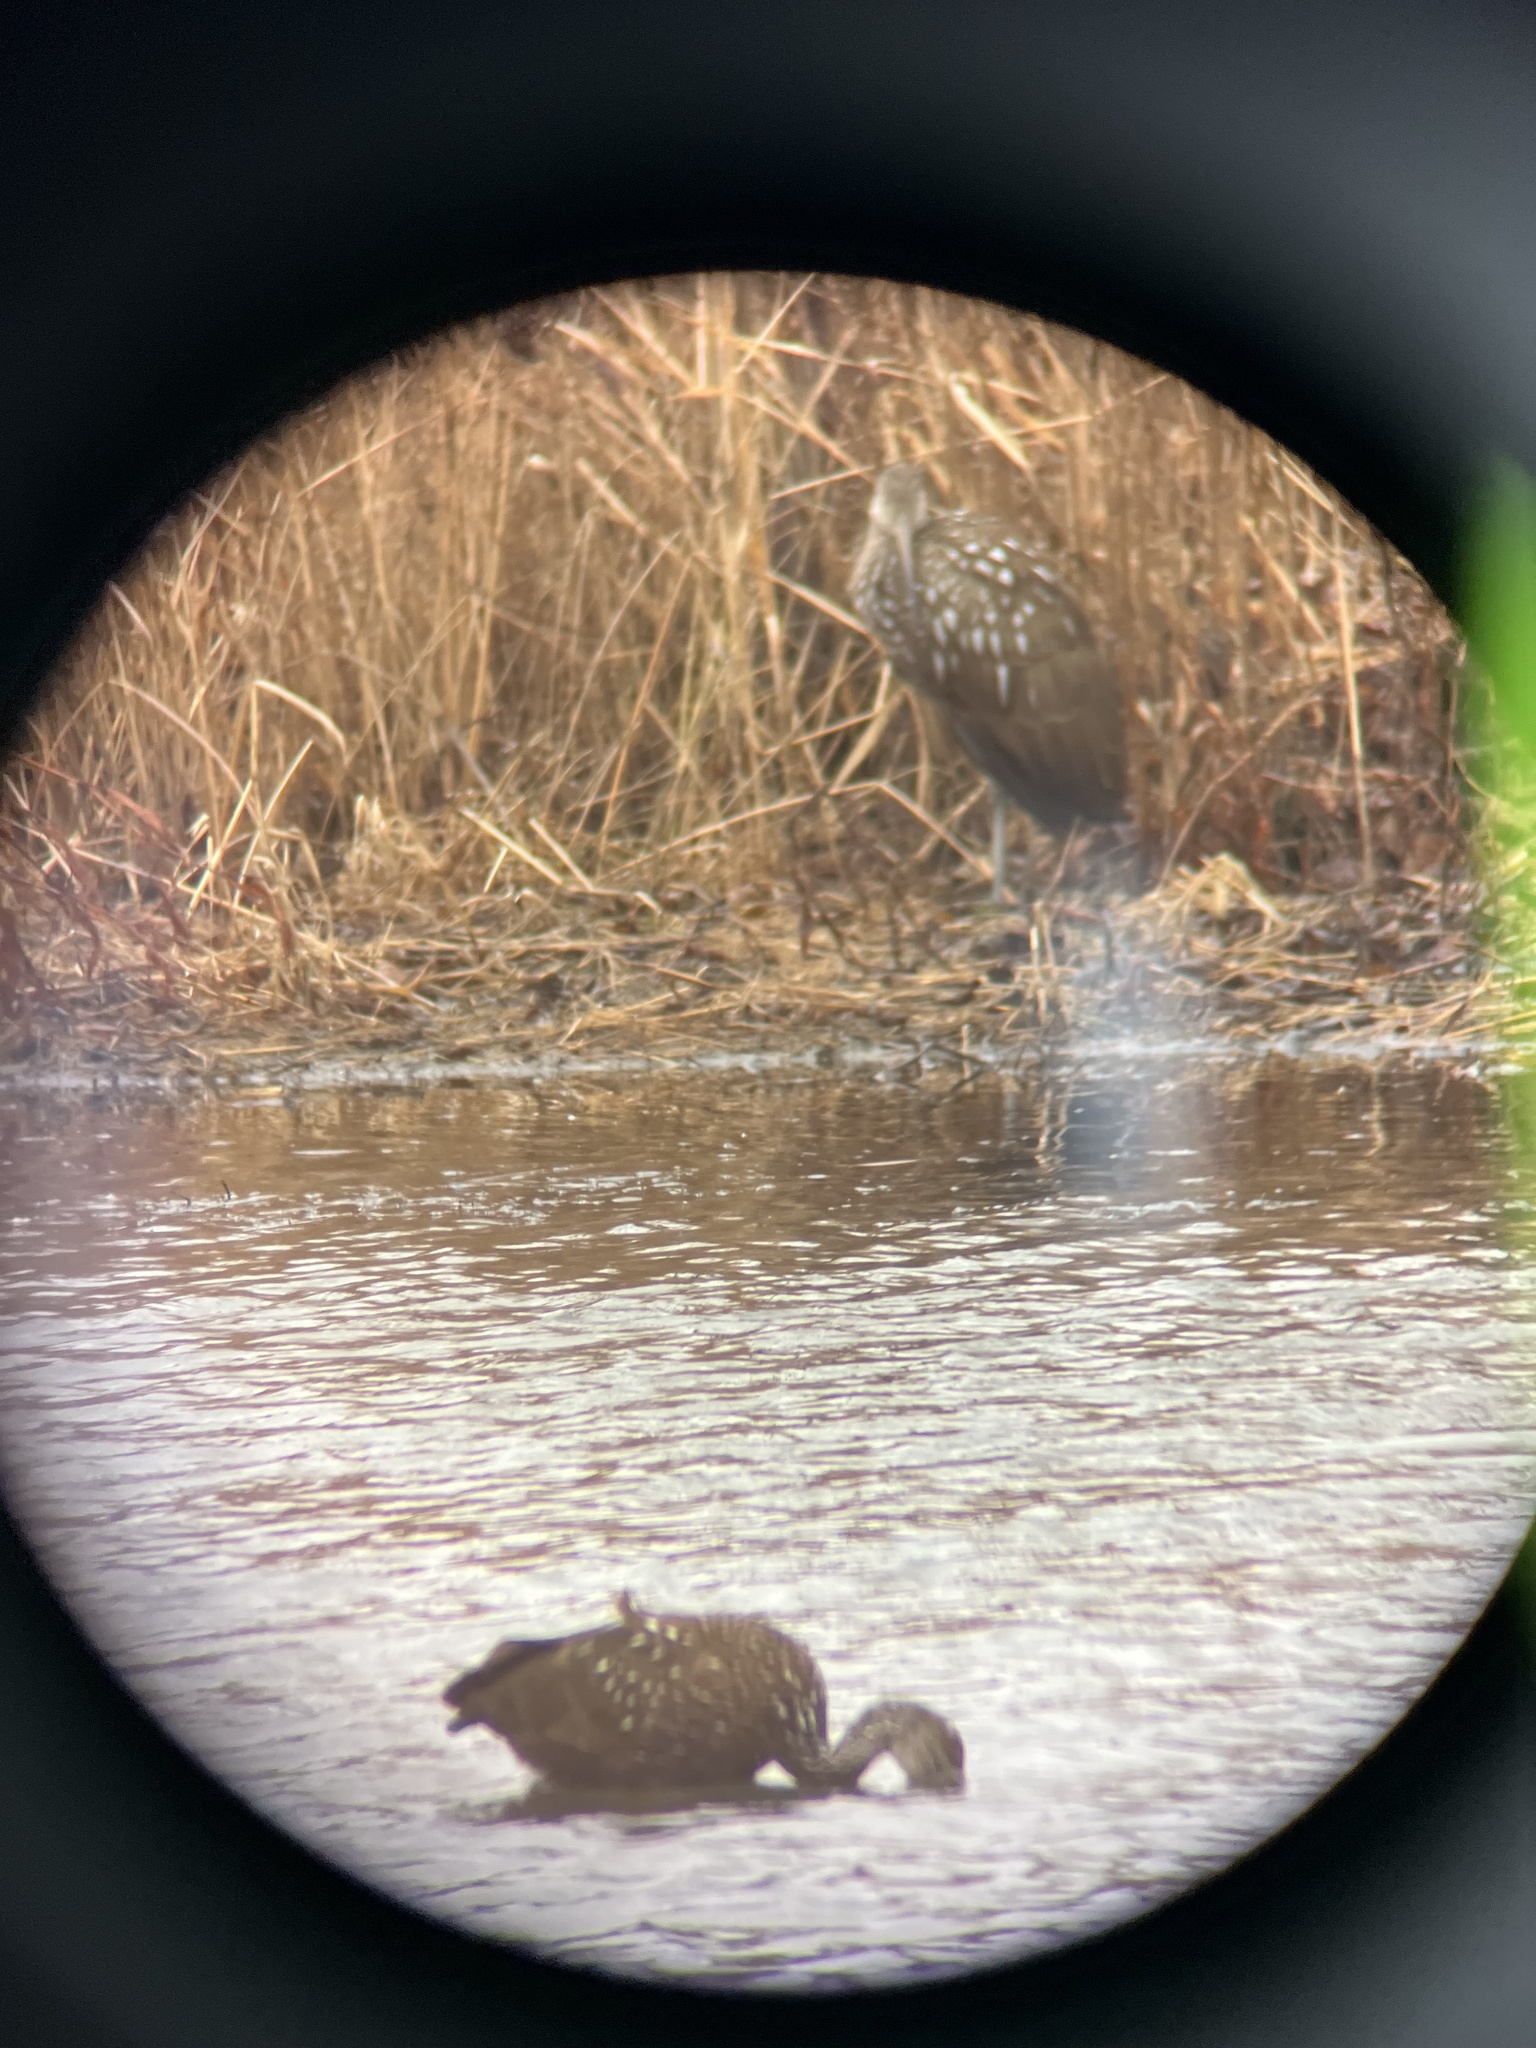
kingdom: Animalia
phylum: Chordata
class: Aves
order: Gruiformes
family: Aramidae
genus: Aramus
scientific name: Aramus guarauna
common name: Limpkin
